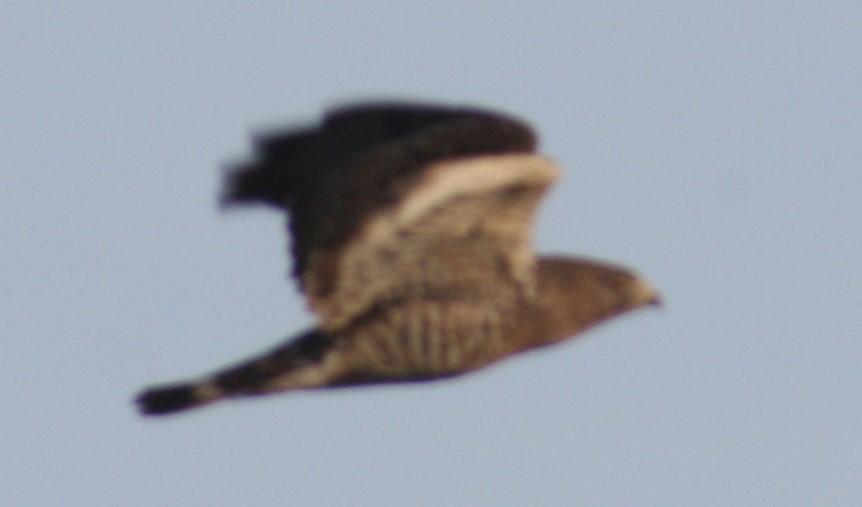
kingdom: Animalia
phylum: Chordata
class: Aves
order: Accipitriformes
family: Accipitridae
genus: Buteo
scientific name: Buteo platypterus
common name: Broad-winged hawk
